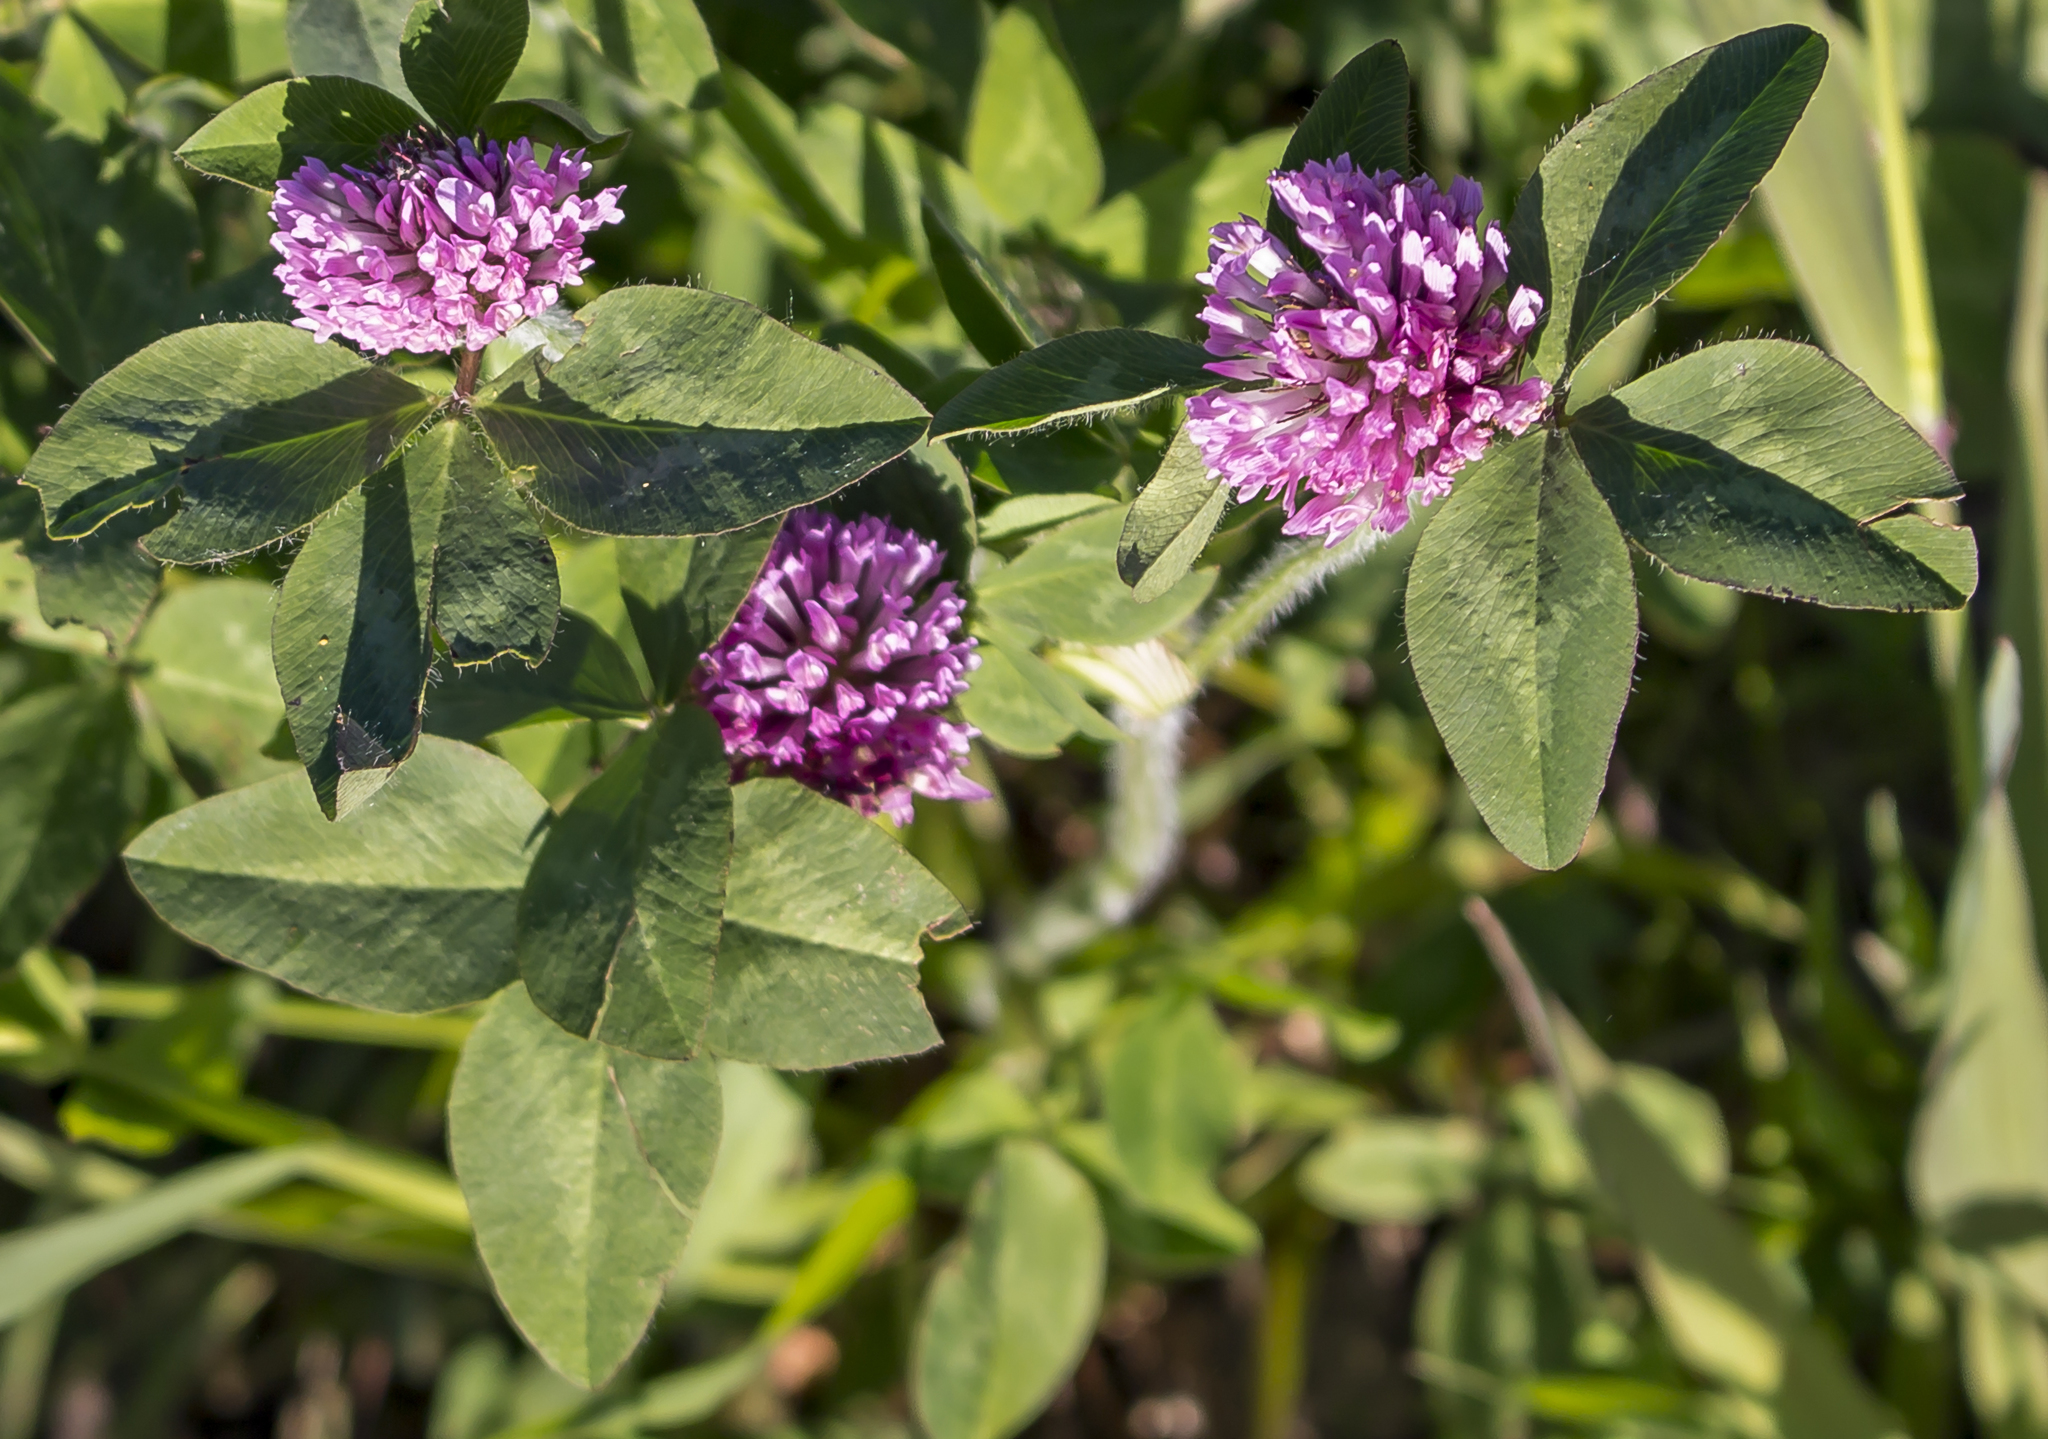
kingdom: Plantae
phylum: Tracheophyta
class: Magnoliopsida
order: Fabales
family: Fabaceae
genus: Trifolium
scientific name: Trifolium pratense
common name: Red clover
